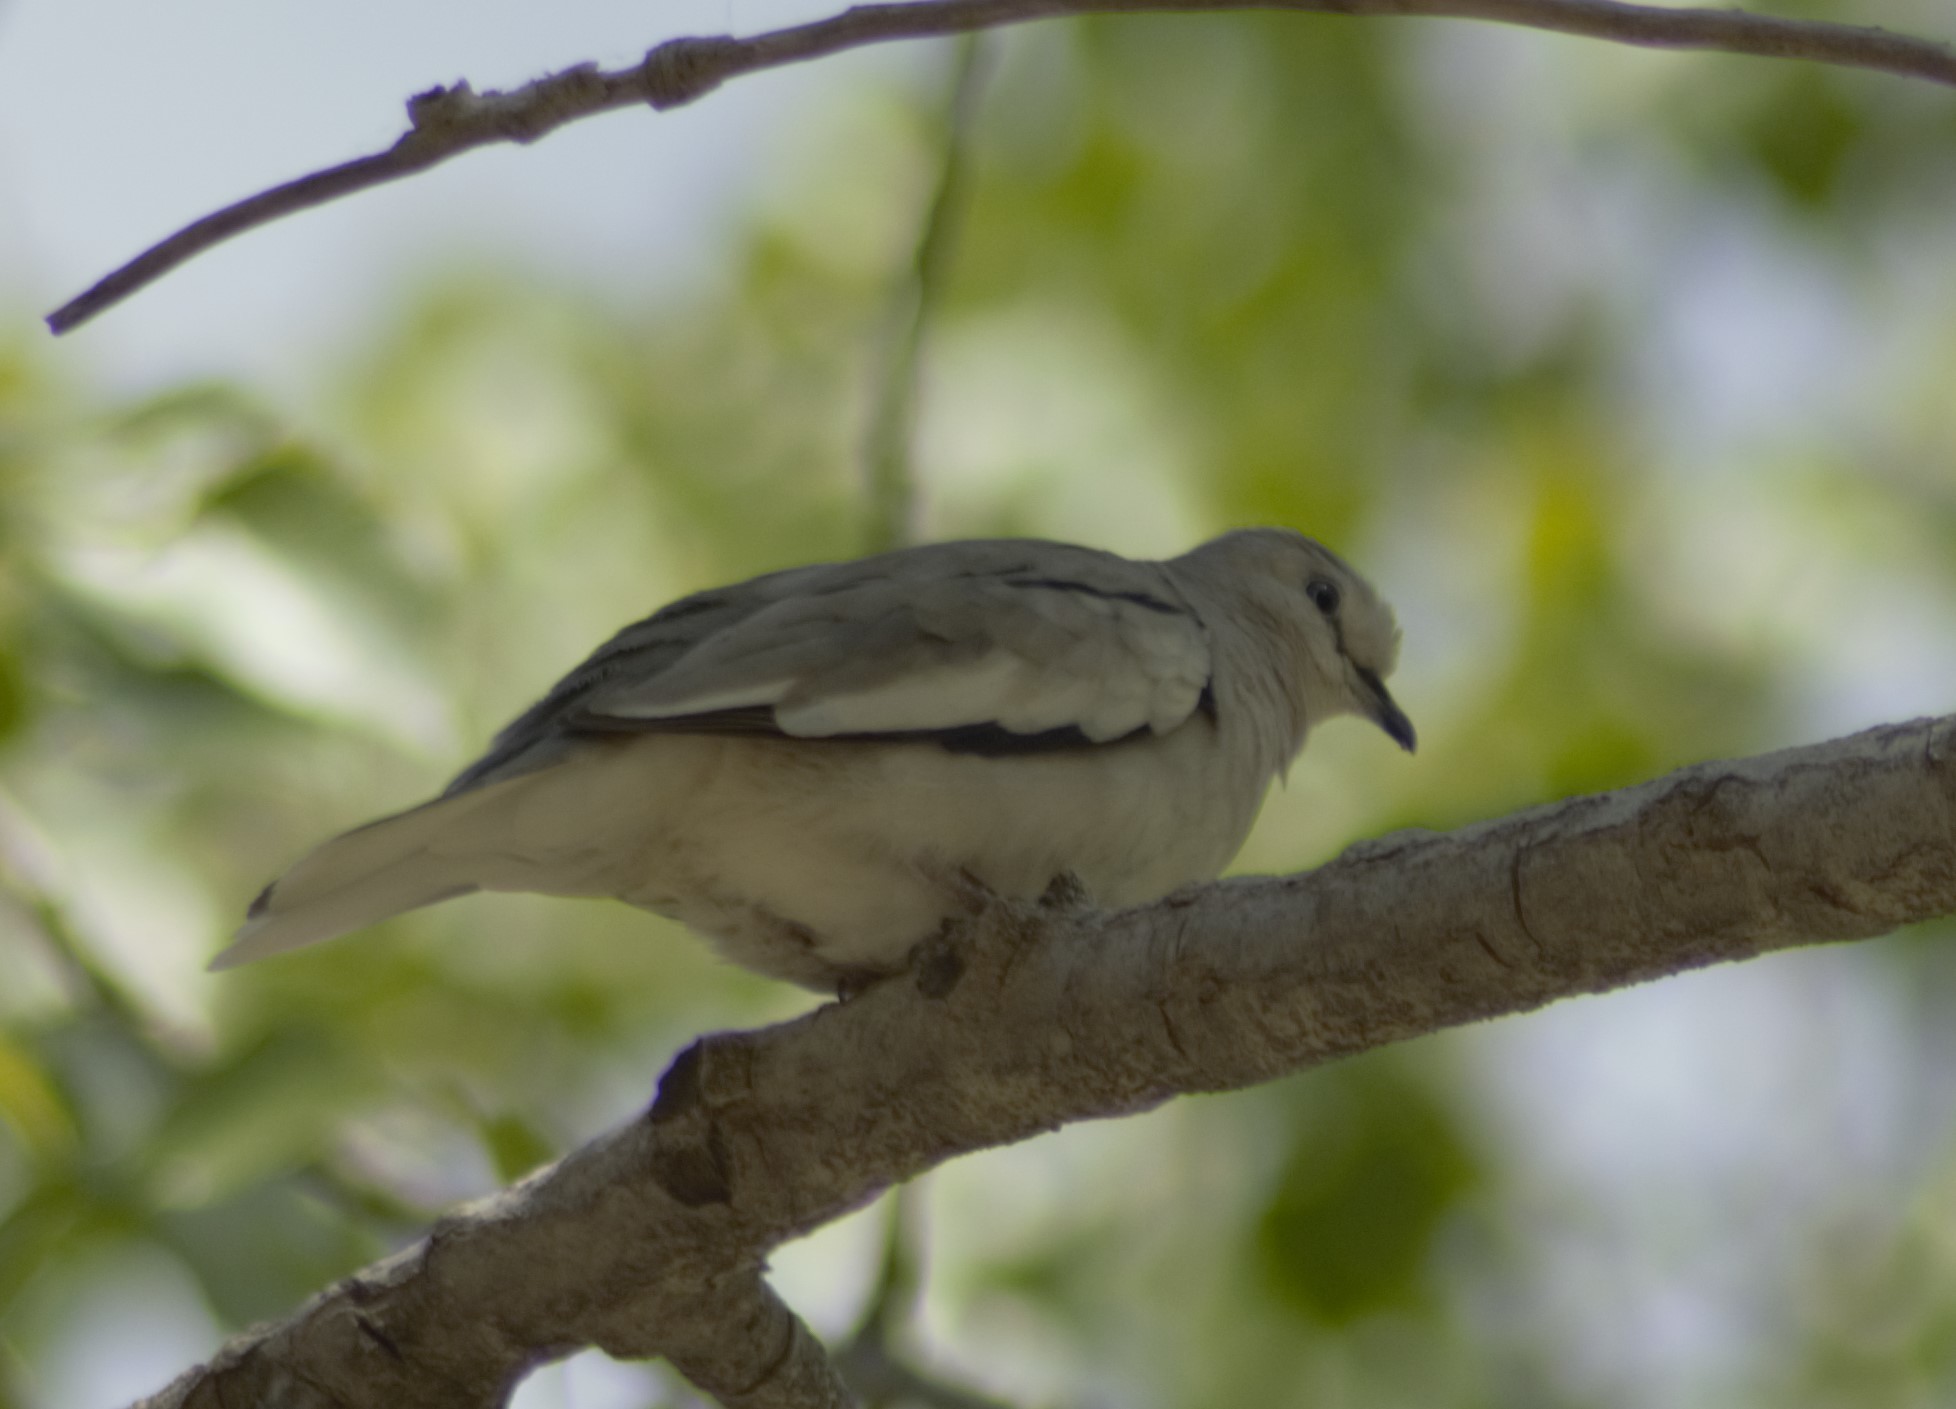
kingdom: Animalia
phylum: Chordata
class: Aves
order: Columbiformes
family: Columbidae
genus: Columbina
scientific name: Columbina picui
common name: Picui ground dove
